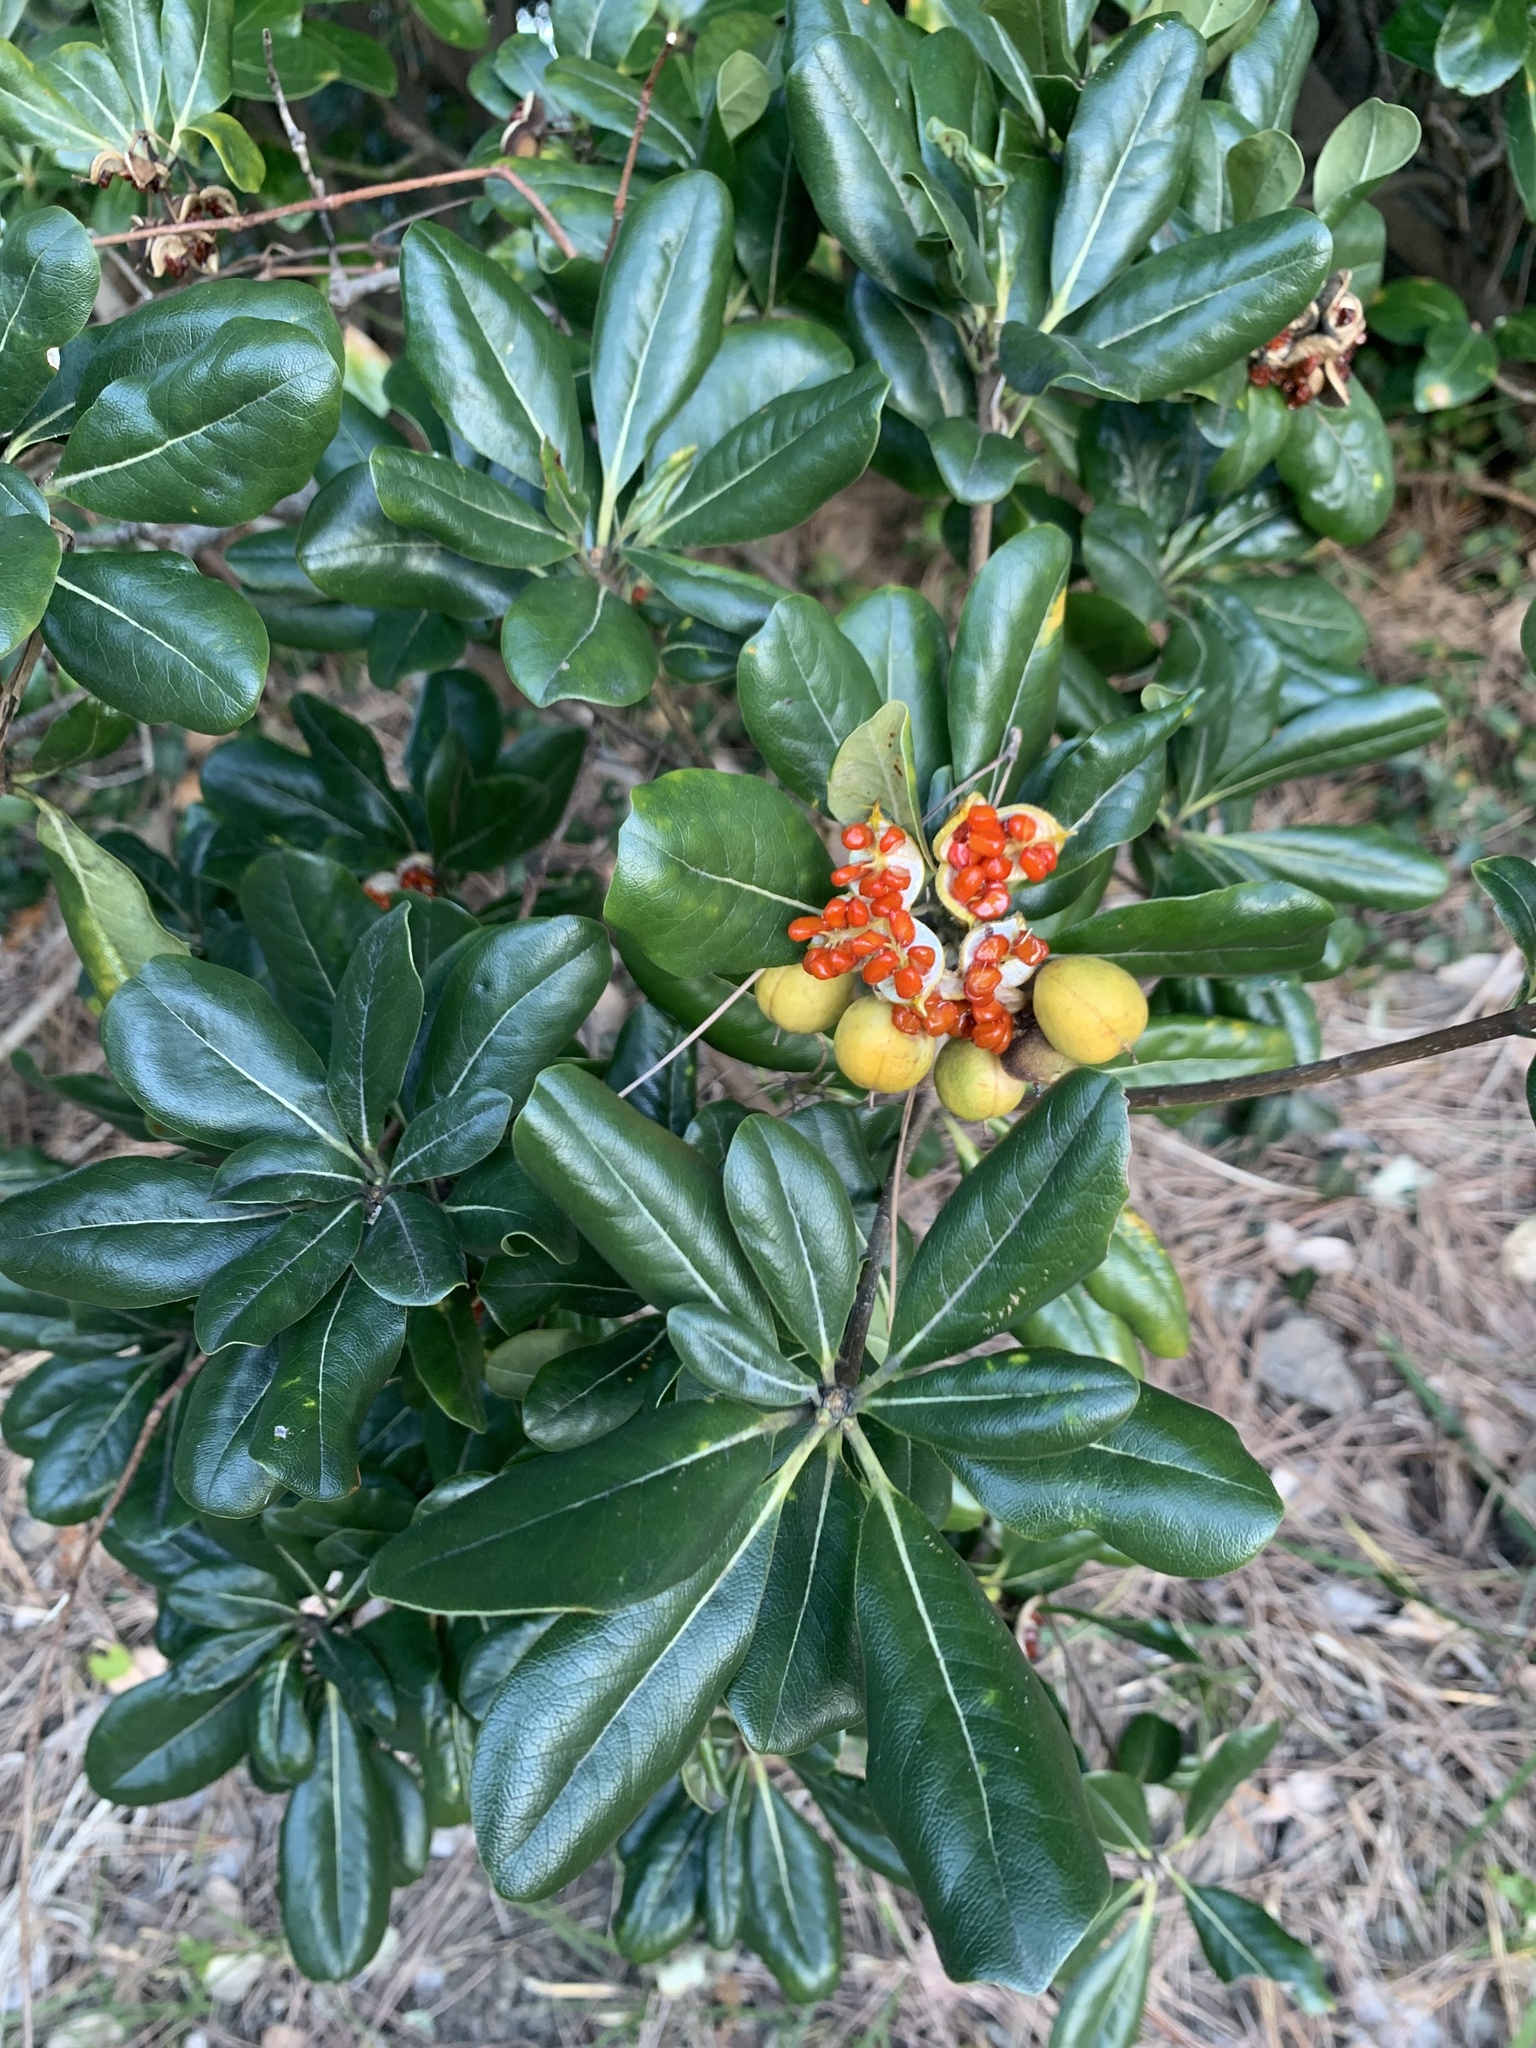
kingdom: Plantae
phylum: Tracheophyta
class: Magnoliopsida
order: Apiales
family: Pittosporaceae
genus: Pittosporum
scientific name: Pittosporum tobira
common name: Japanese cheesewood
